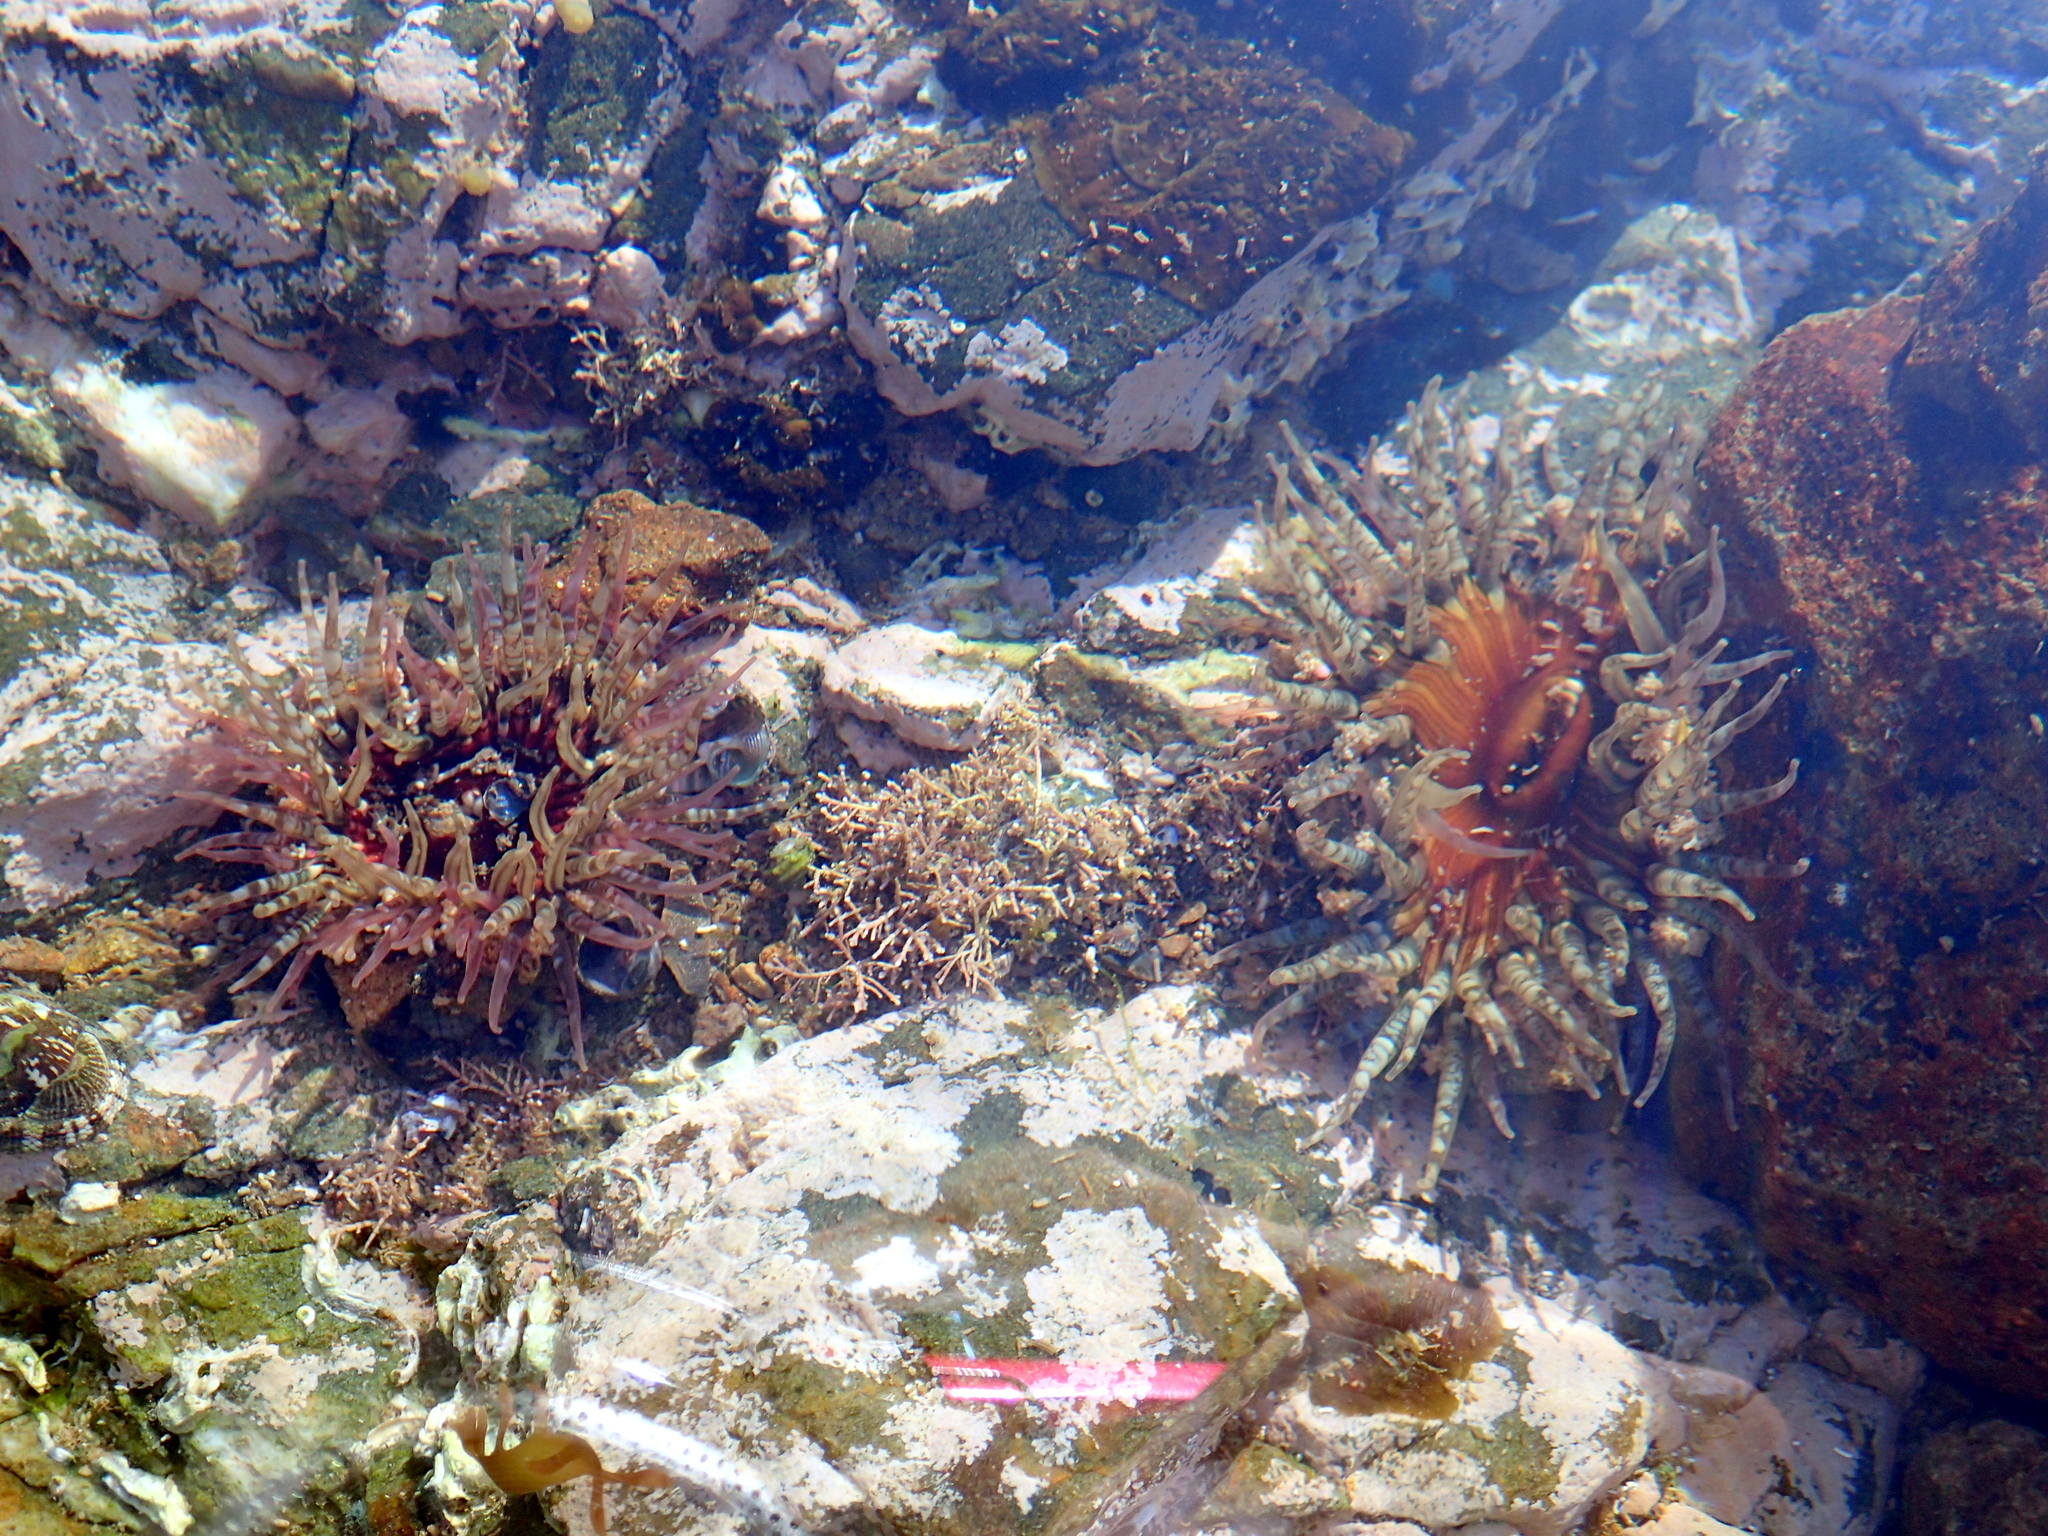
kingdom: Animalia
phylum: Cnidaria
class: Anthozoa
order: Actiniaria
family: Actiniidae
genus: Oulactis
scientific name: Oulactis muscosa
